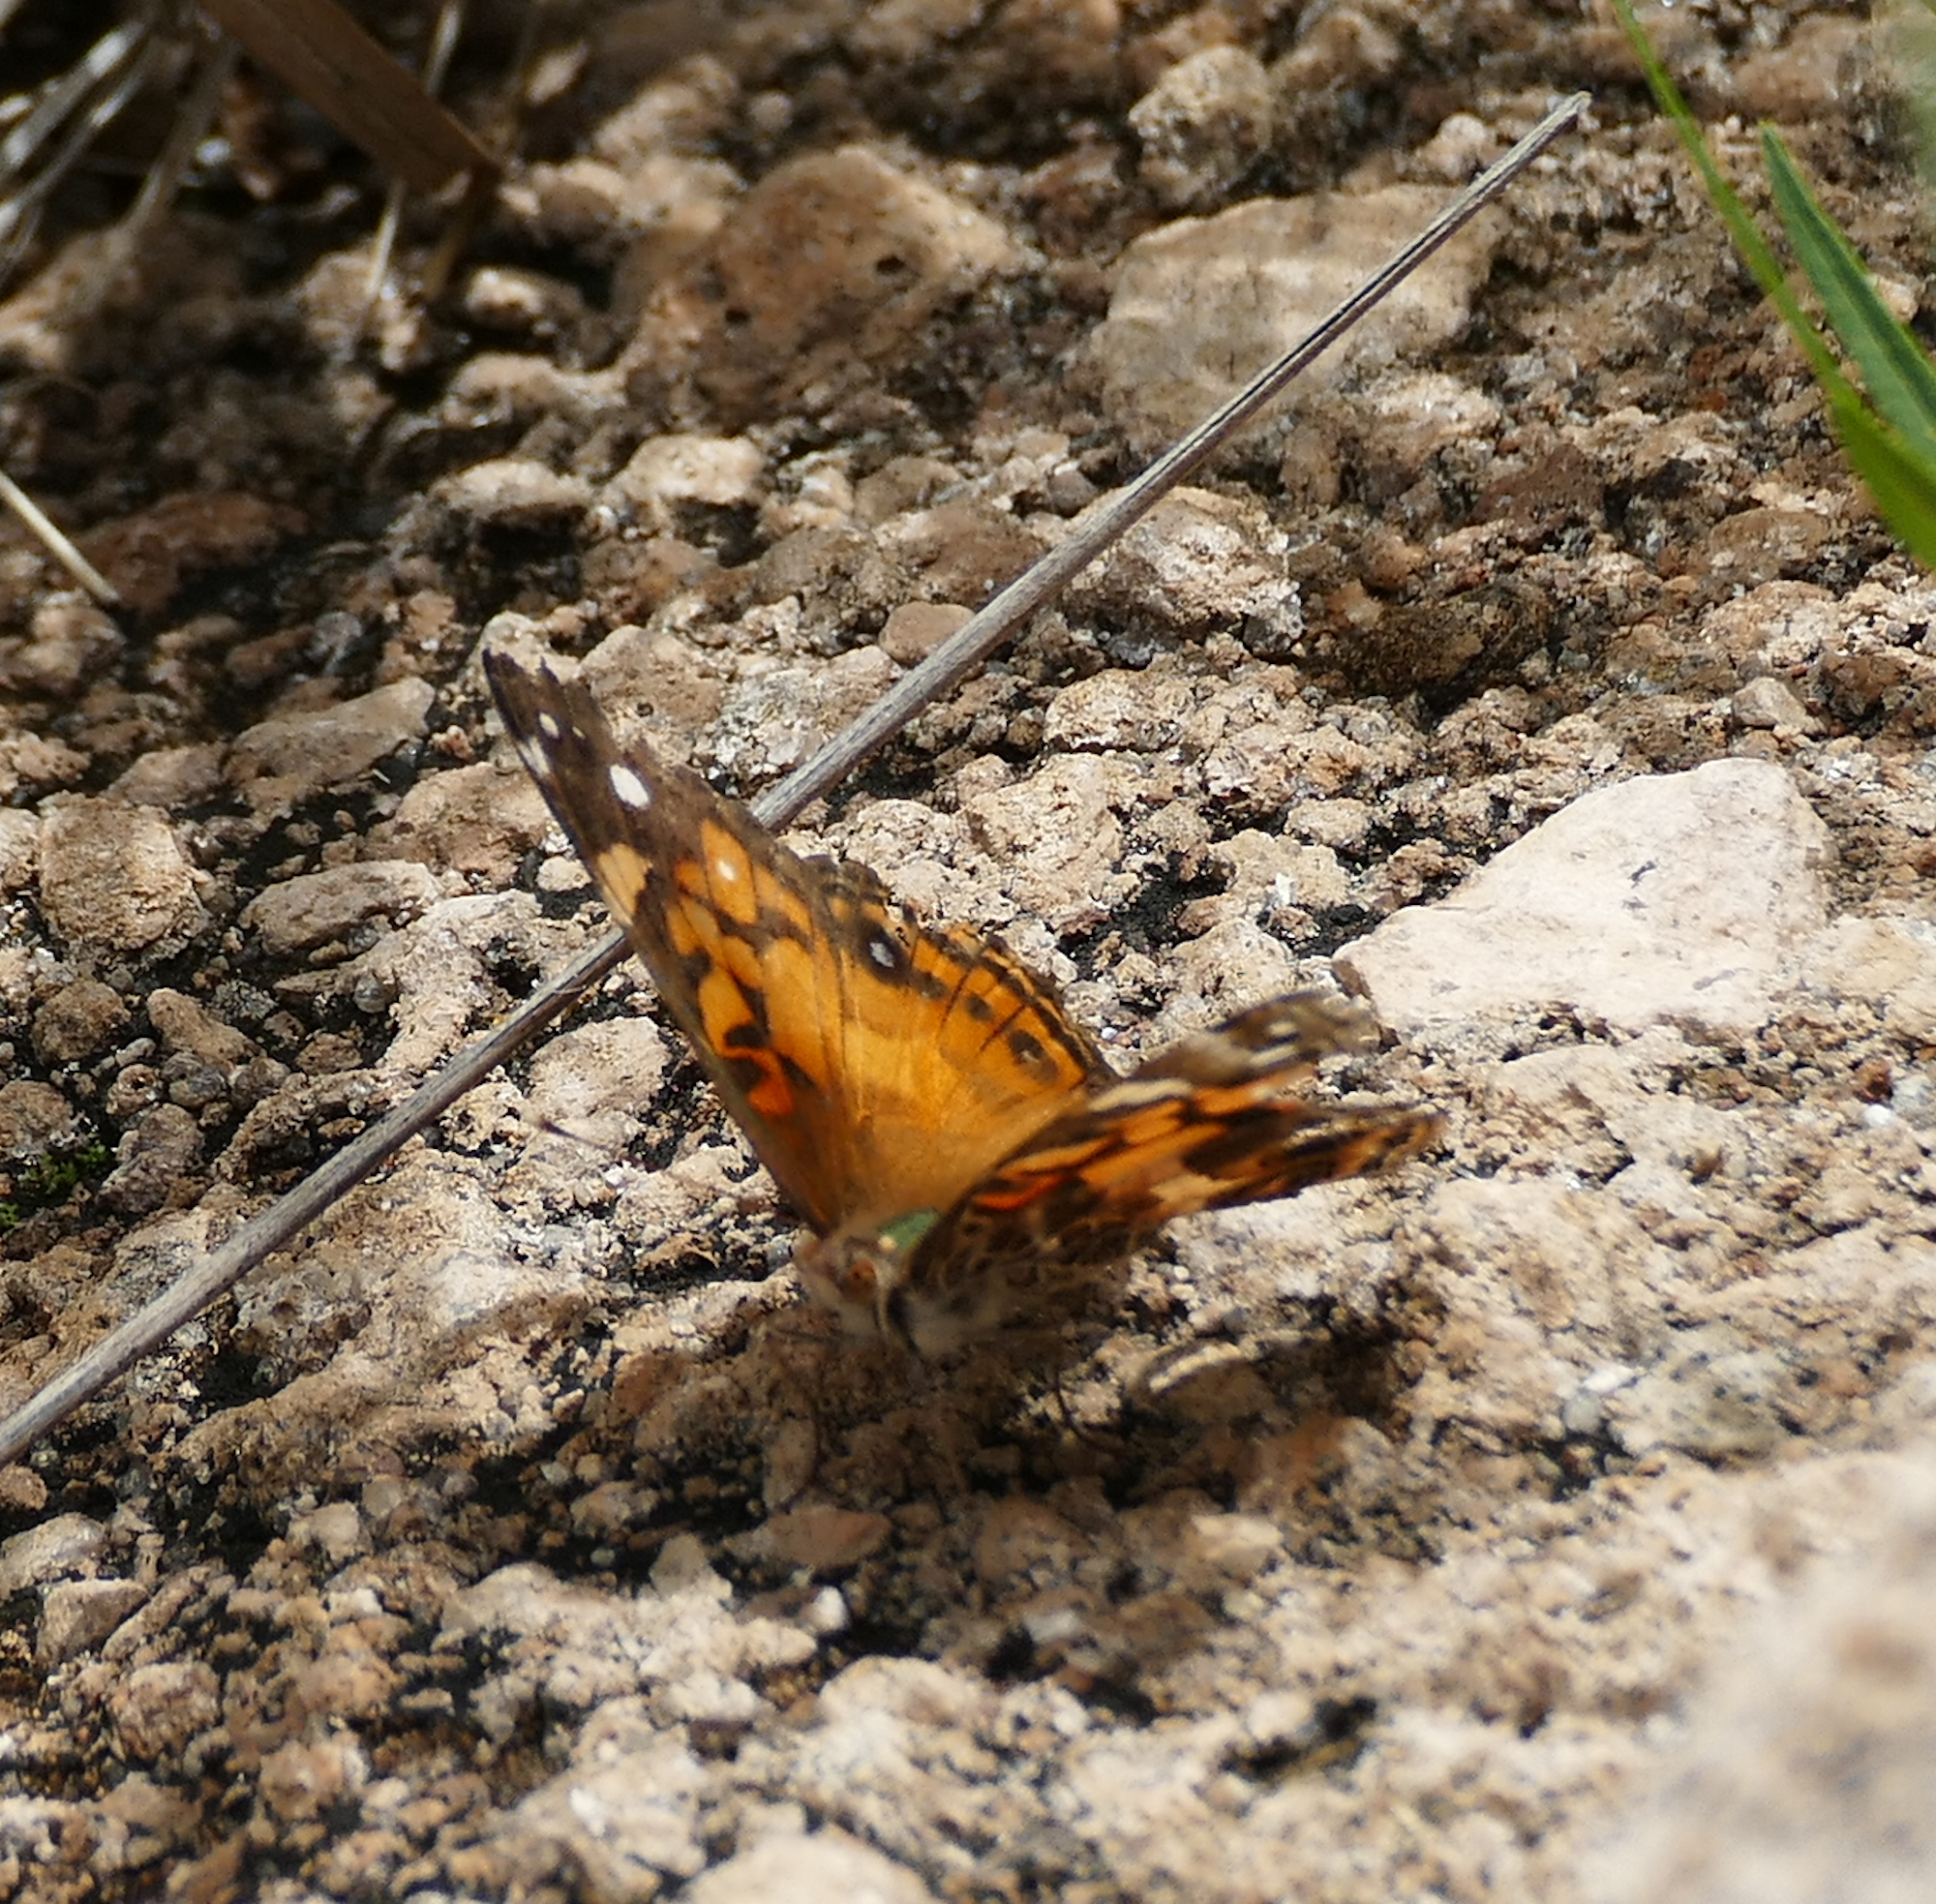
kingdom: Animalia
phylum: Arthropoda
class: Insecta
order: Lepidoptera
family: Nymphalidae
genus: Vanessa
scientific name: Vanessa virginiensis
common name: American lady
